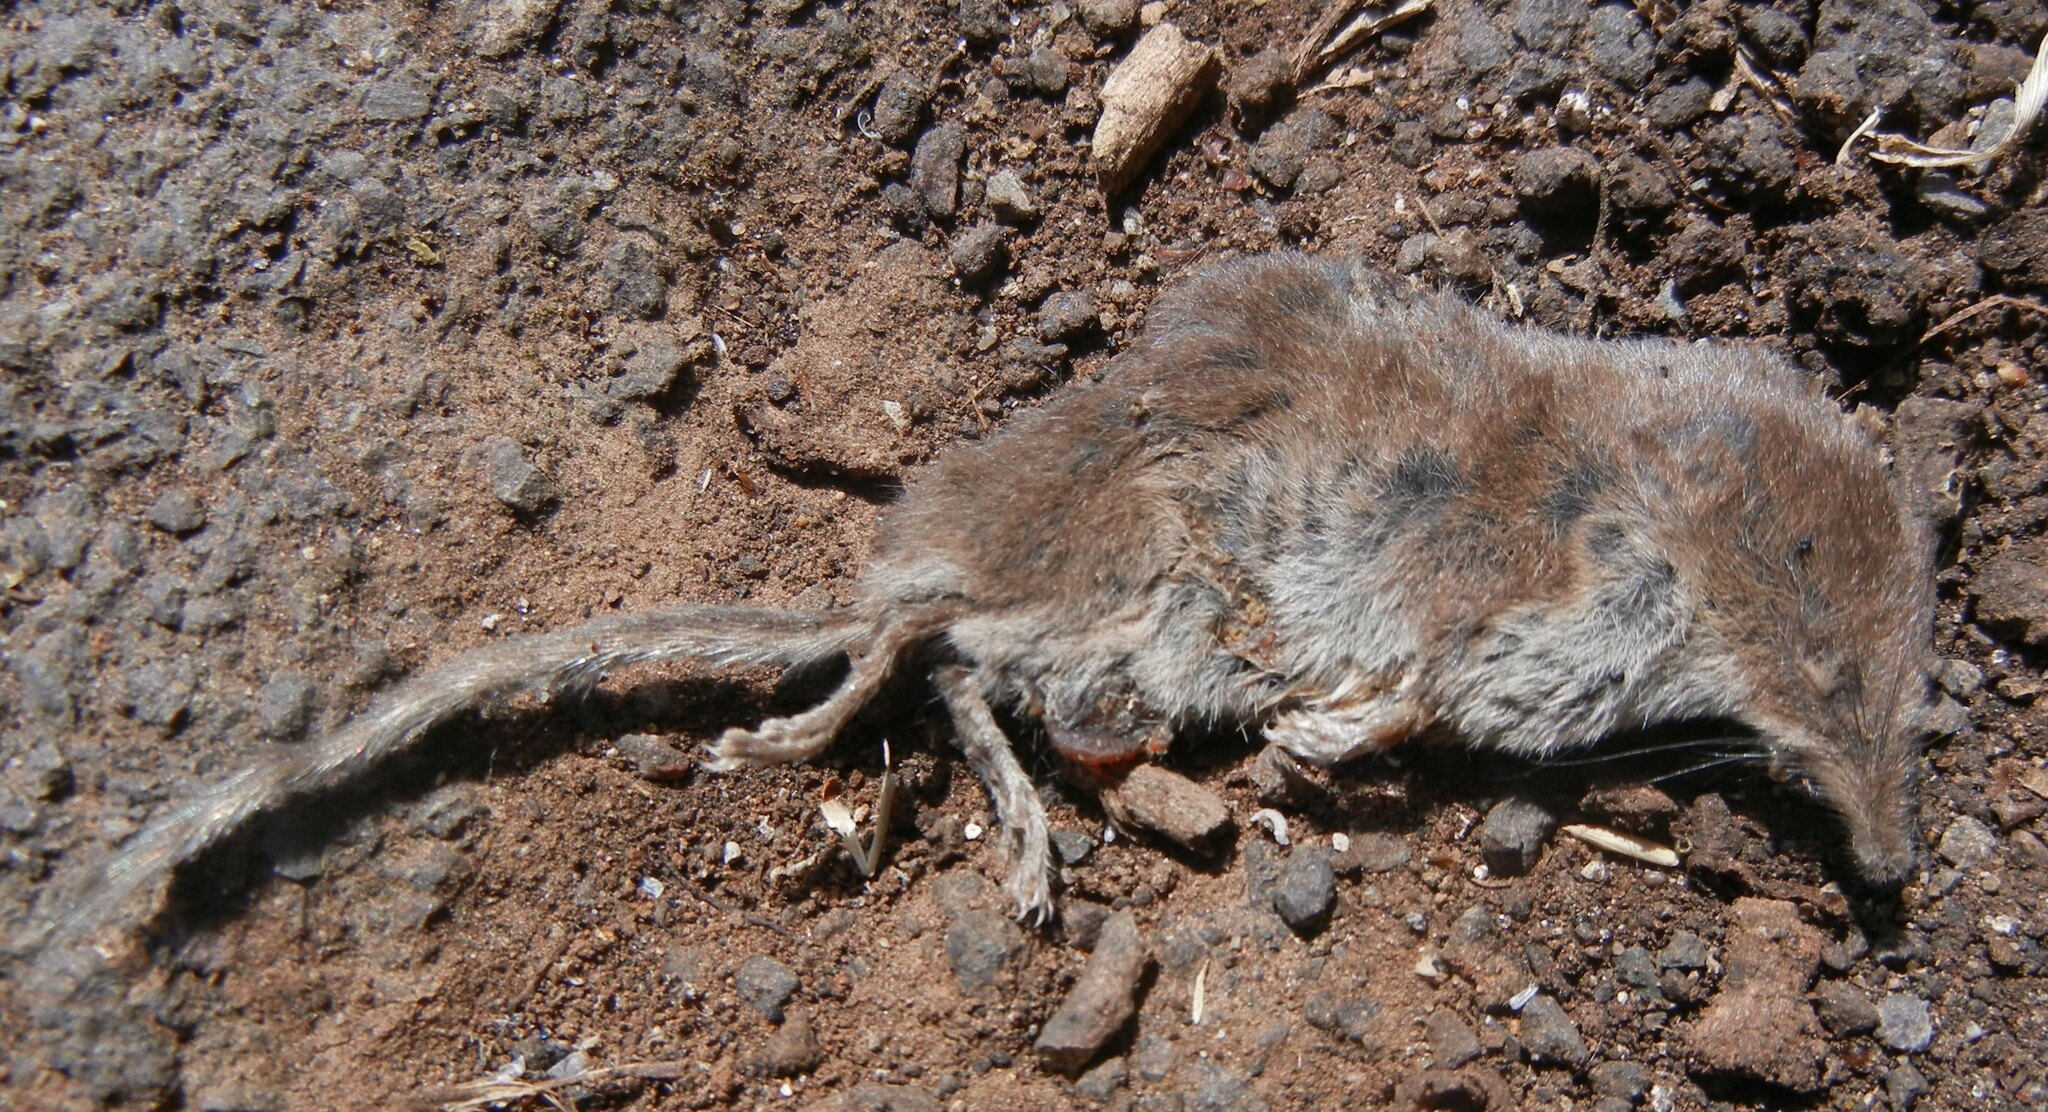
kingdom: Animalia
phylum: Chordata
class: Mammalia
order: Soricomorpha
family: Soricidae
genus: Sorex
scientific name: Sorex minutus
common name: Eurasian pygmy shrew
